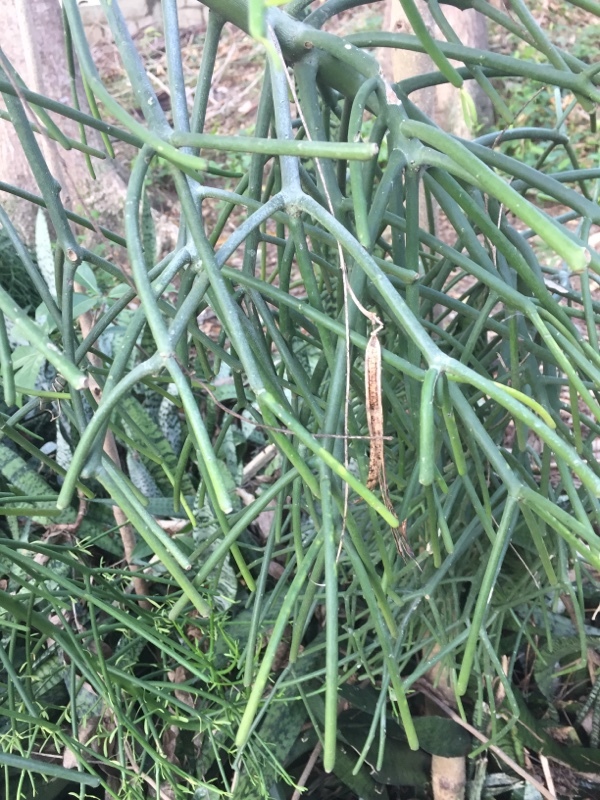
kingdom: Plantae
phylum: Tracheophyta
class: Magnoliopsida
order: Malpighiales
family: Euphorbiaceae
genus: Euphorbia
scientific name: Euphorbia tirucalli
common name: Indiantree spurge
